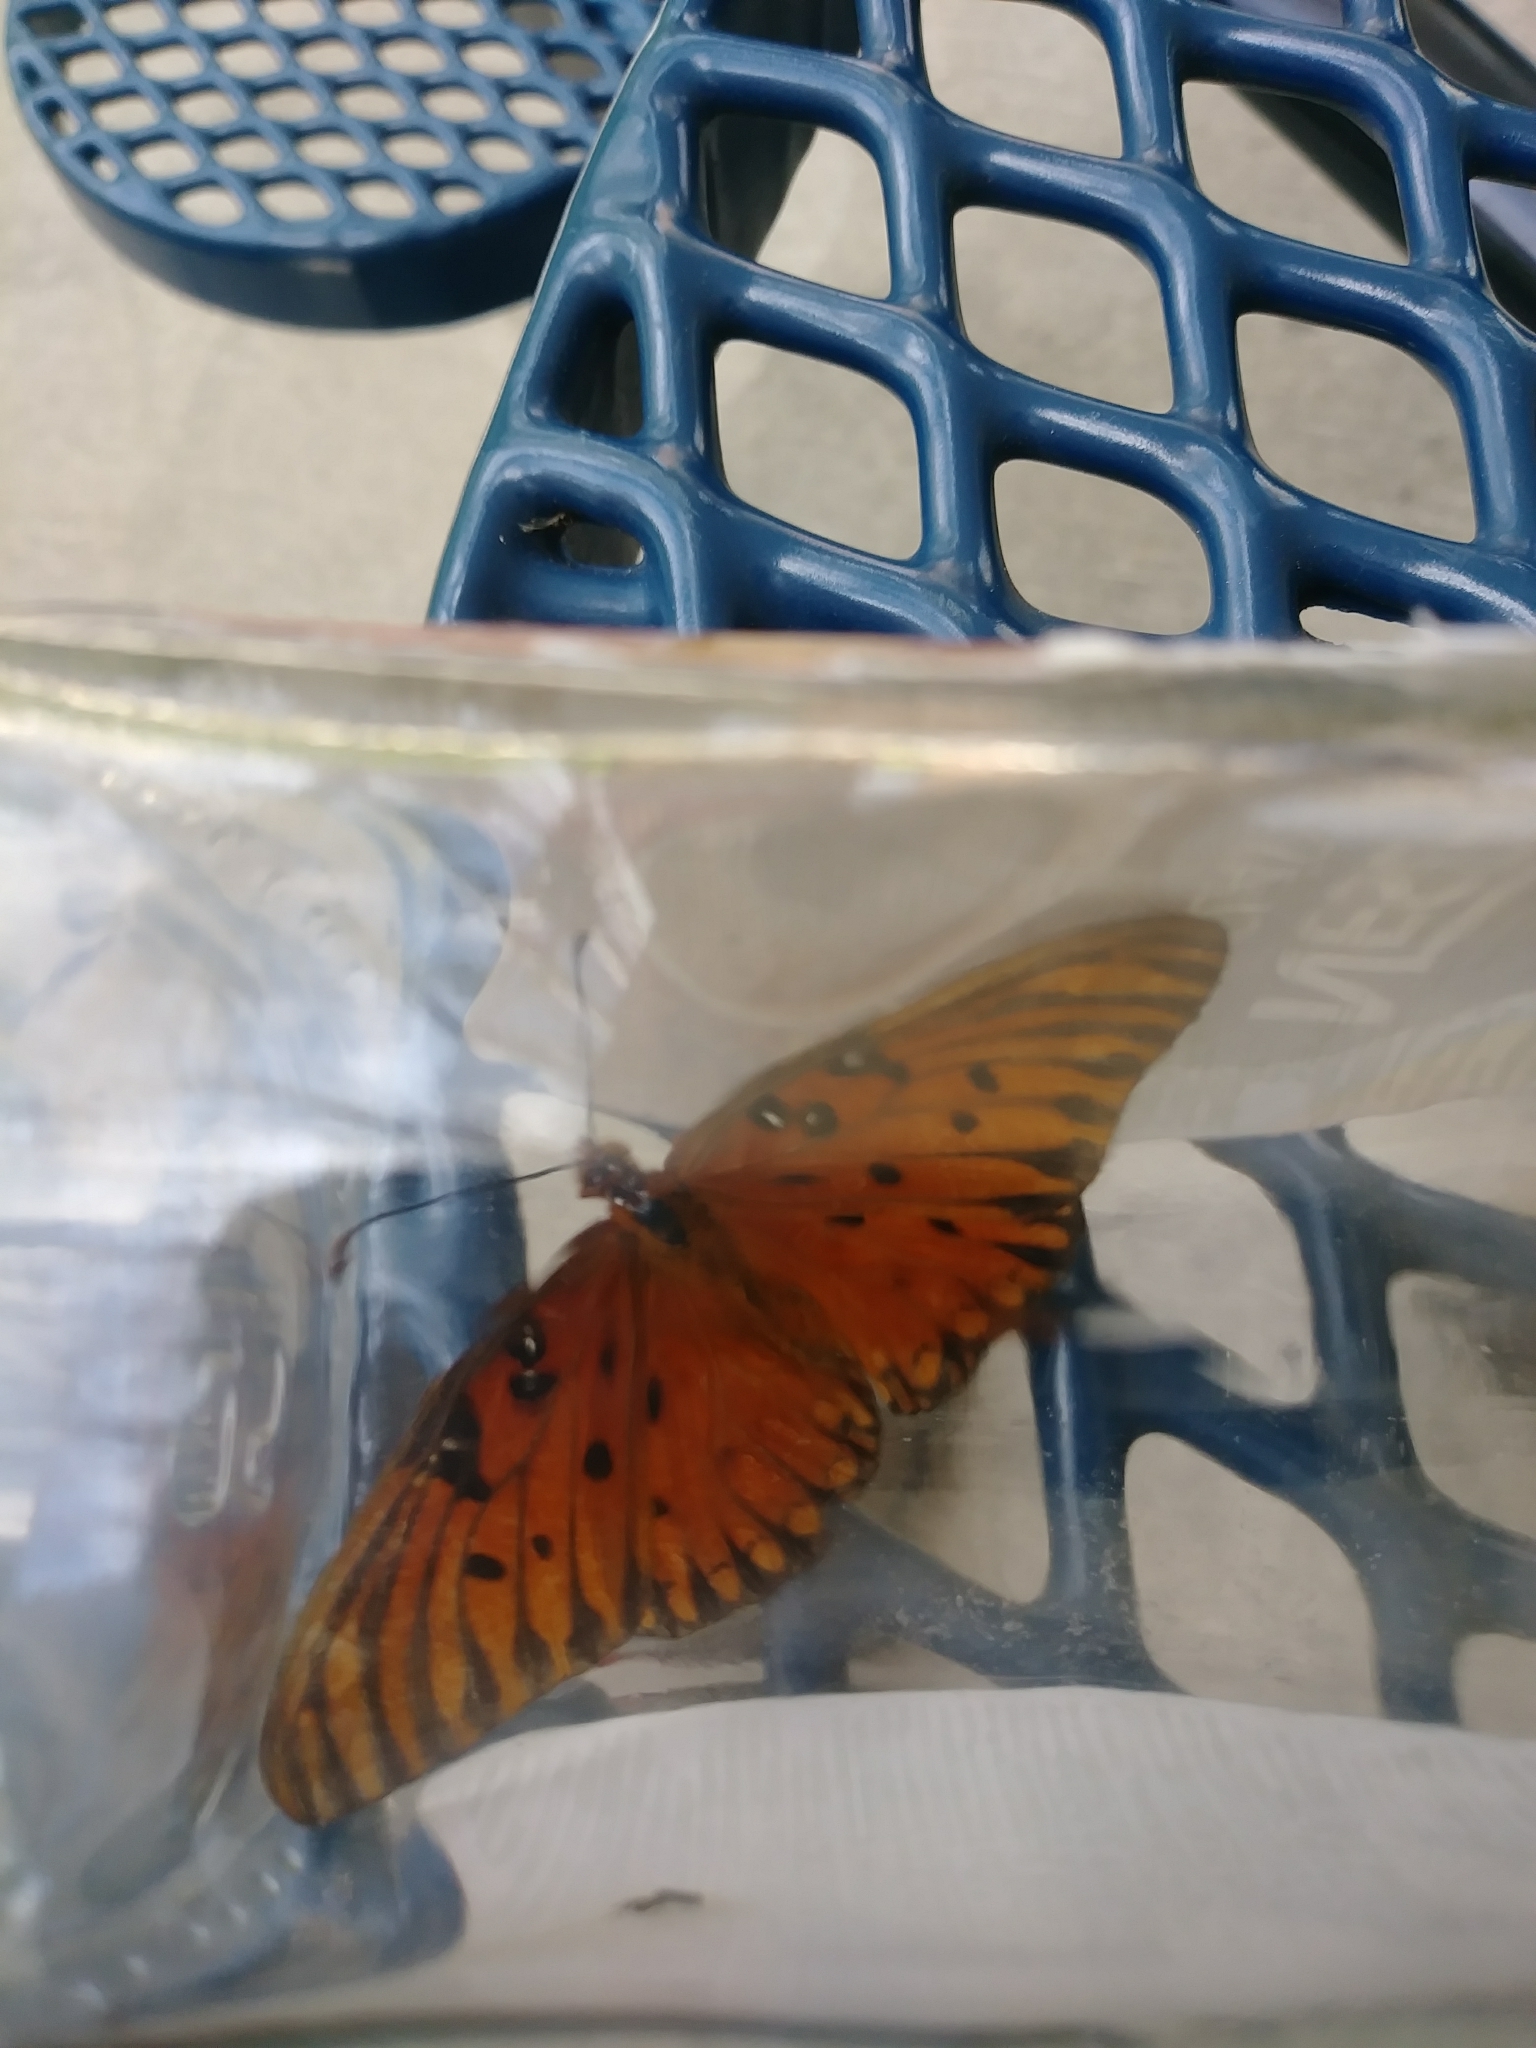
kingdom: Animalia
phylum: Arthropoda
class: Insecta
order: Lepidoptera
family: Nymphalidae
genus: Dione
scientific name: Dione vanillae
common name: Gulf fritillary
